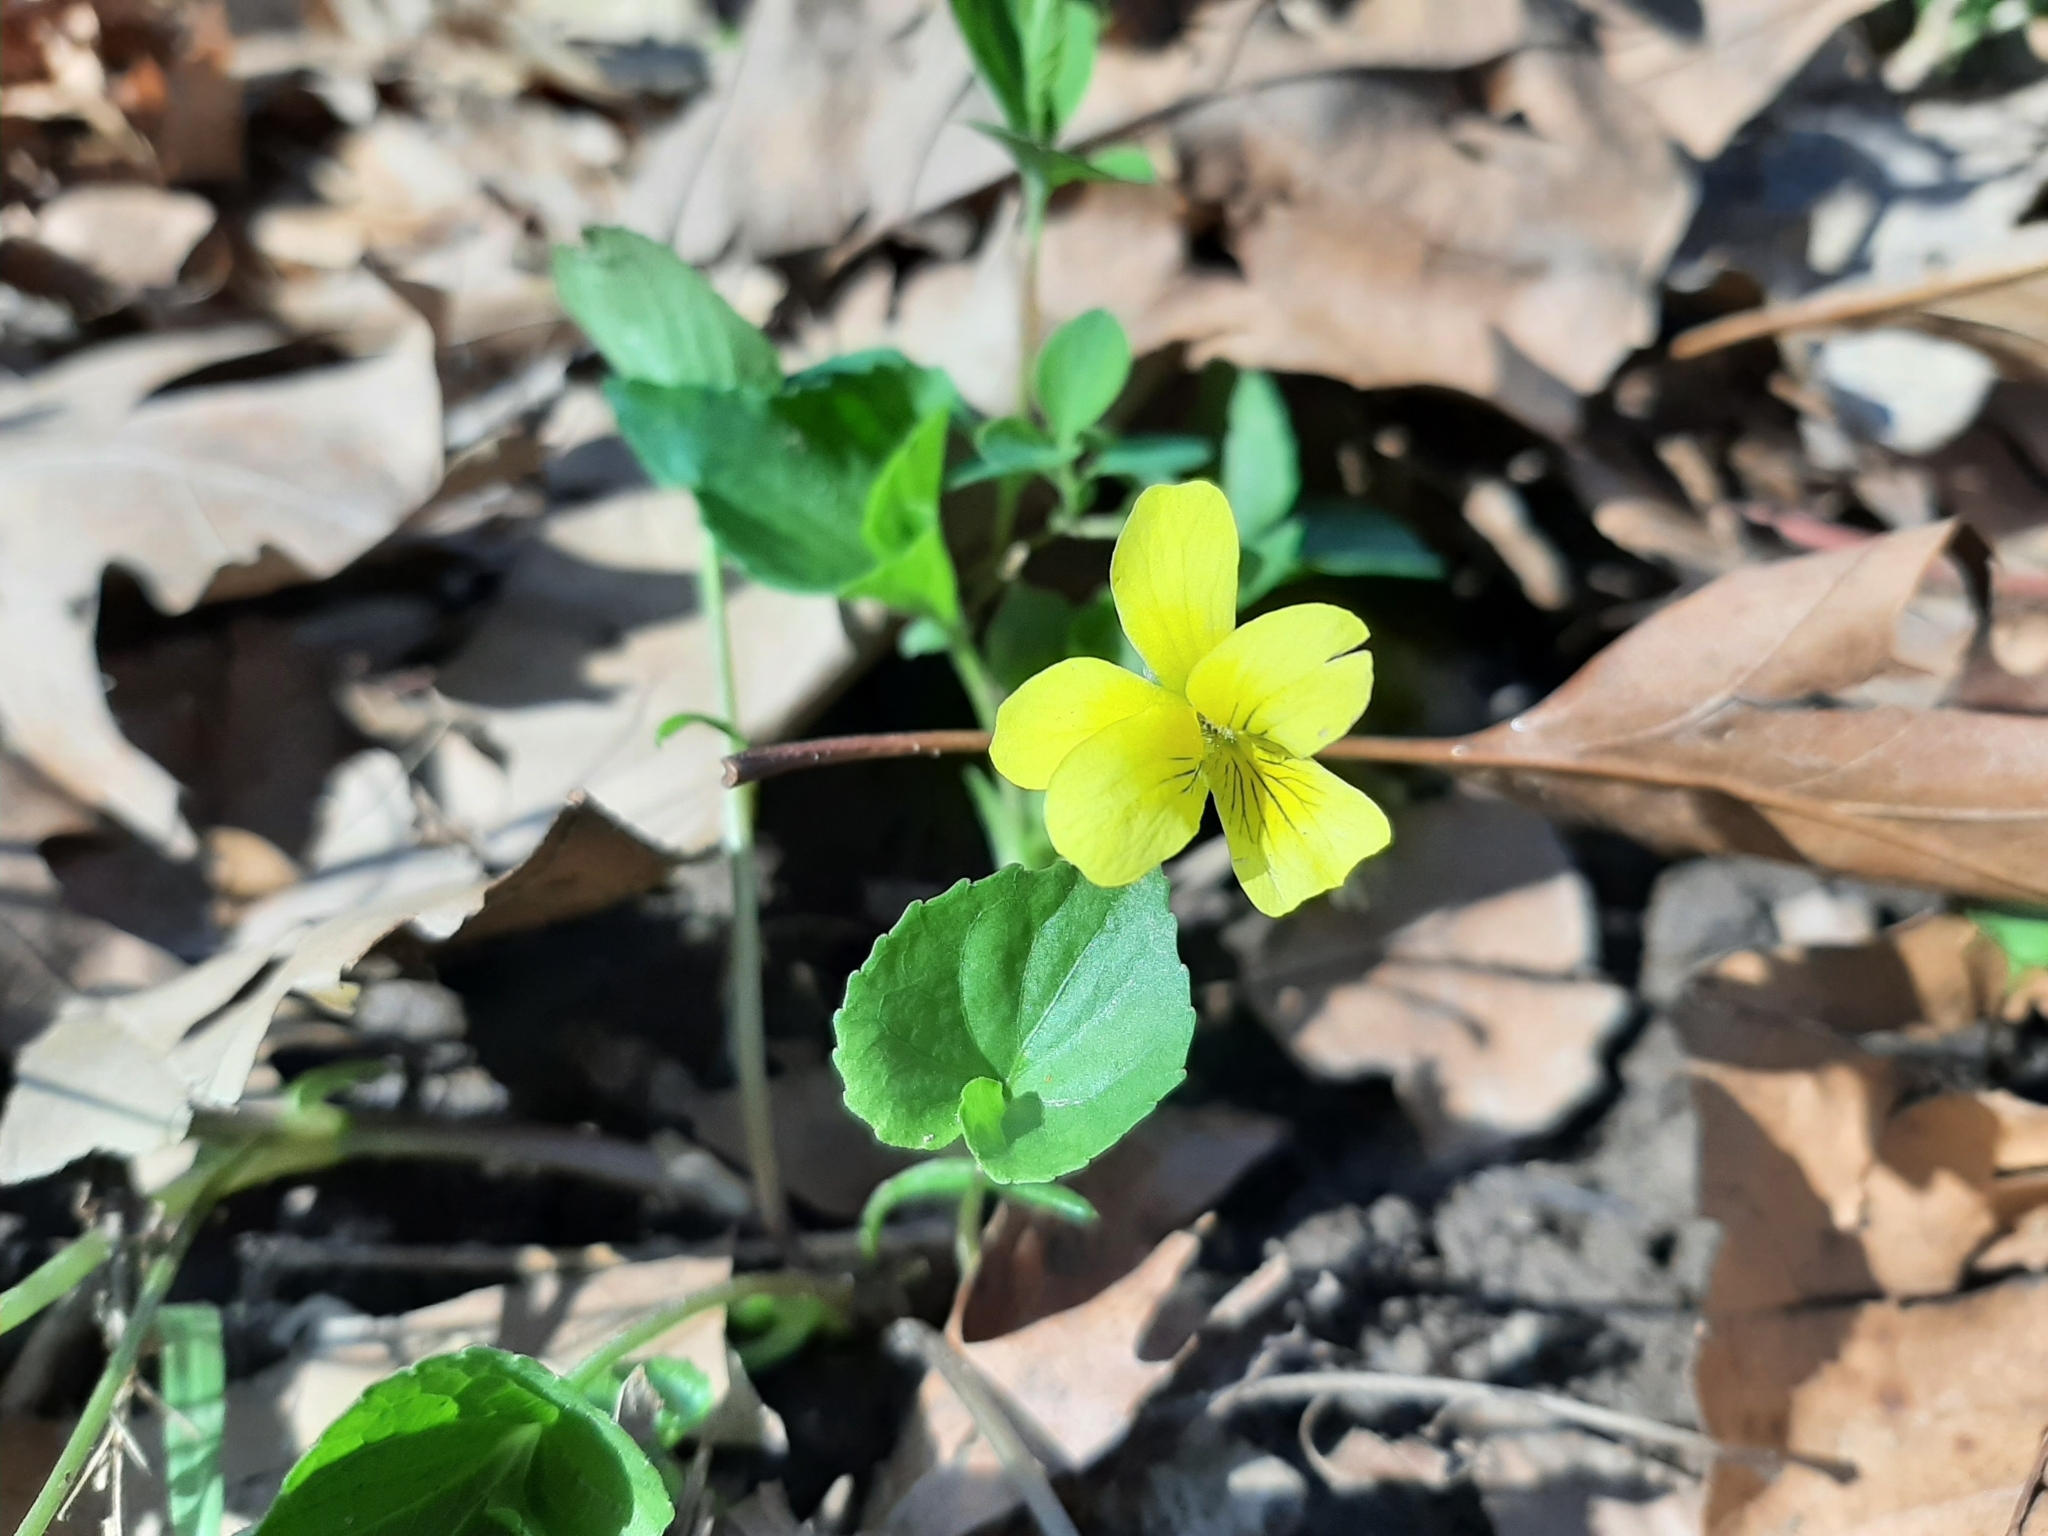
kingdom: Plantae
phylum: Tracheophyta
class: Magnoliopsida
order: Malpighiales
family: Violaceae
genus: Viola
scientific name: Viola eriocarpa
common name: Smooth yellow violet
